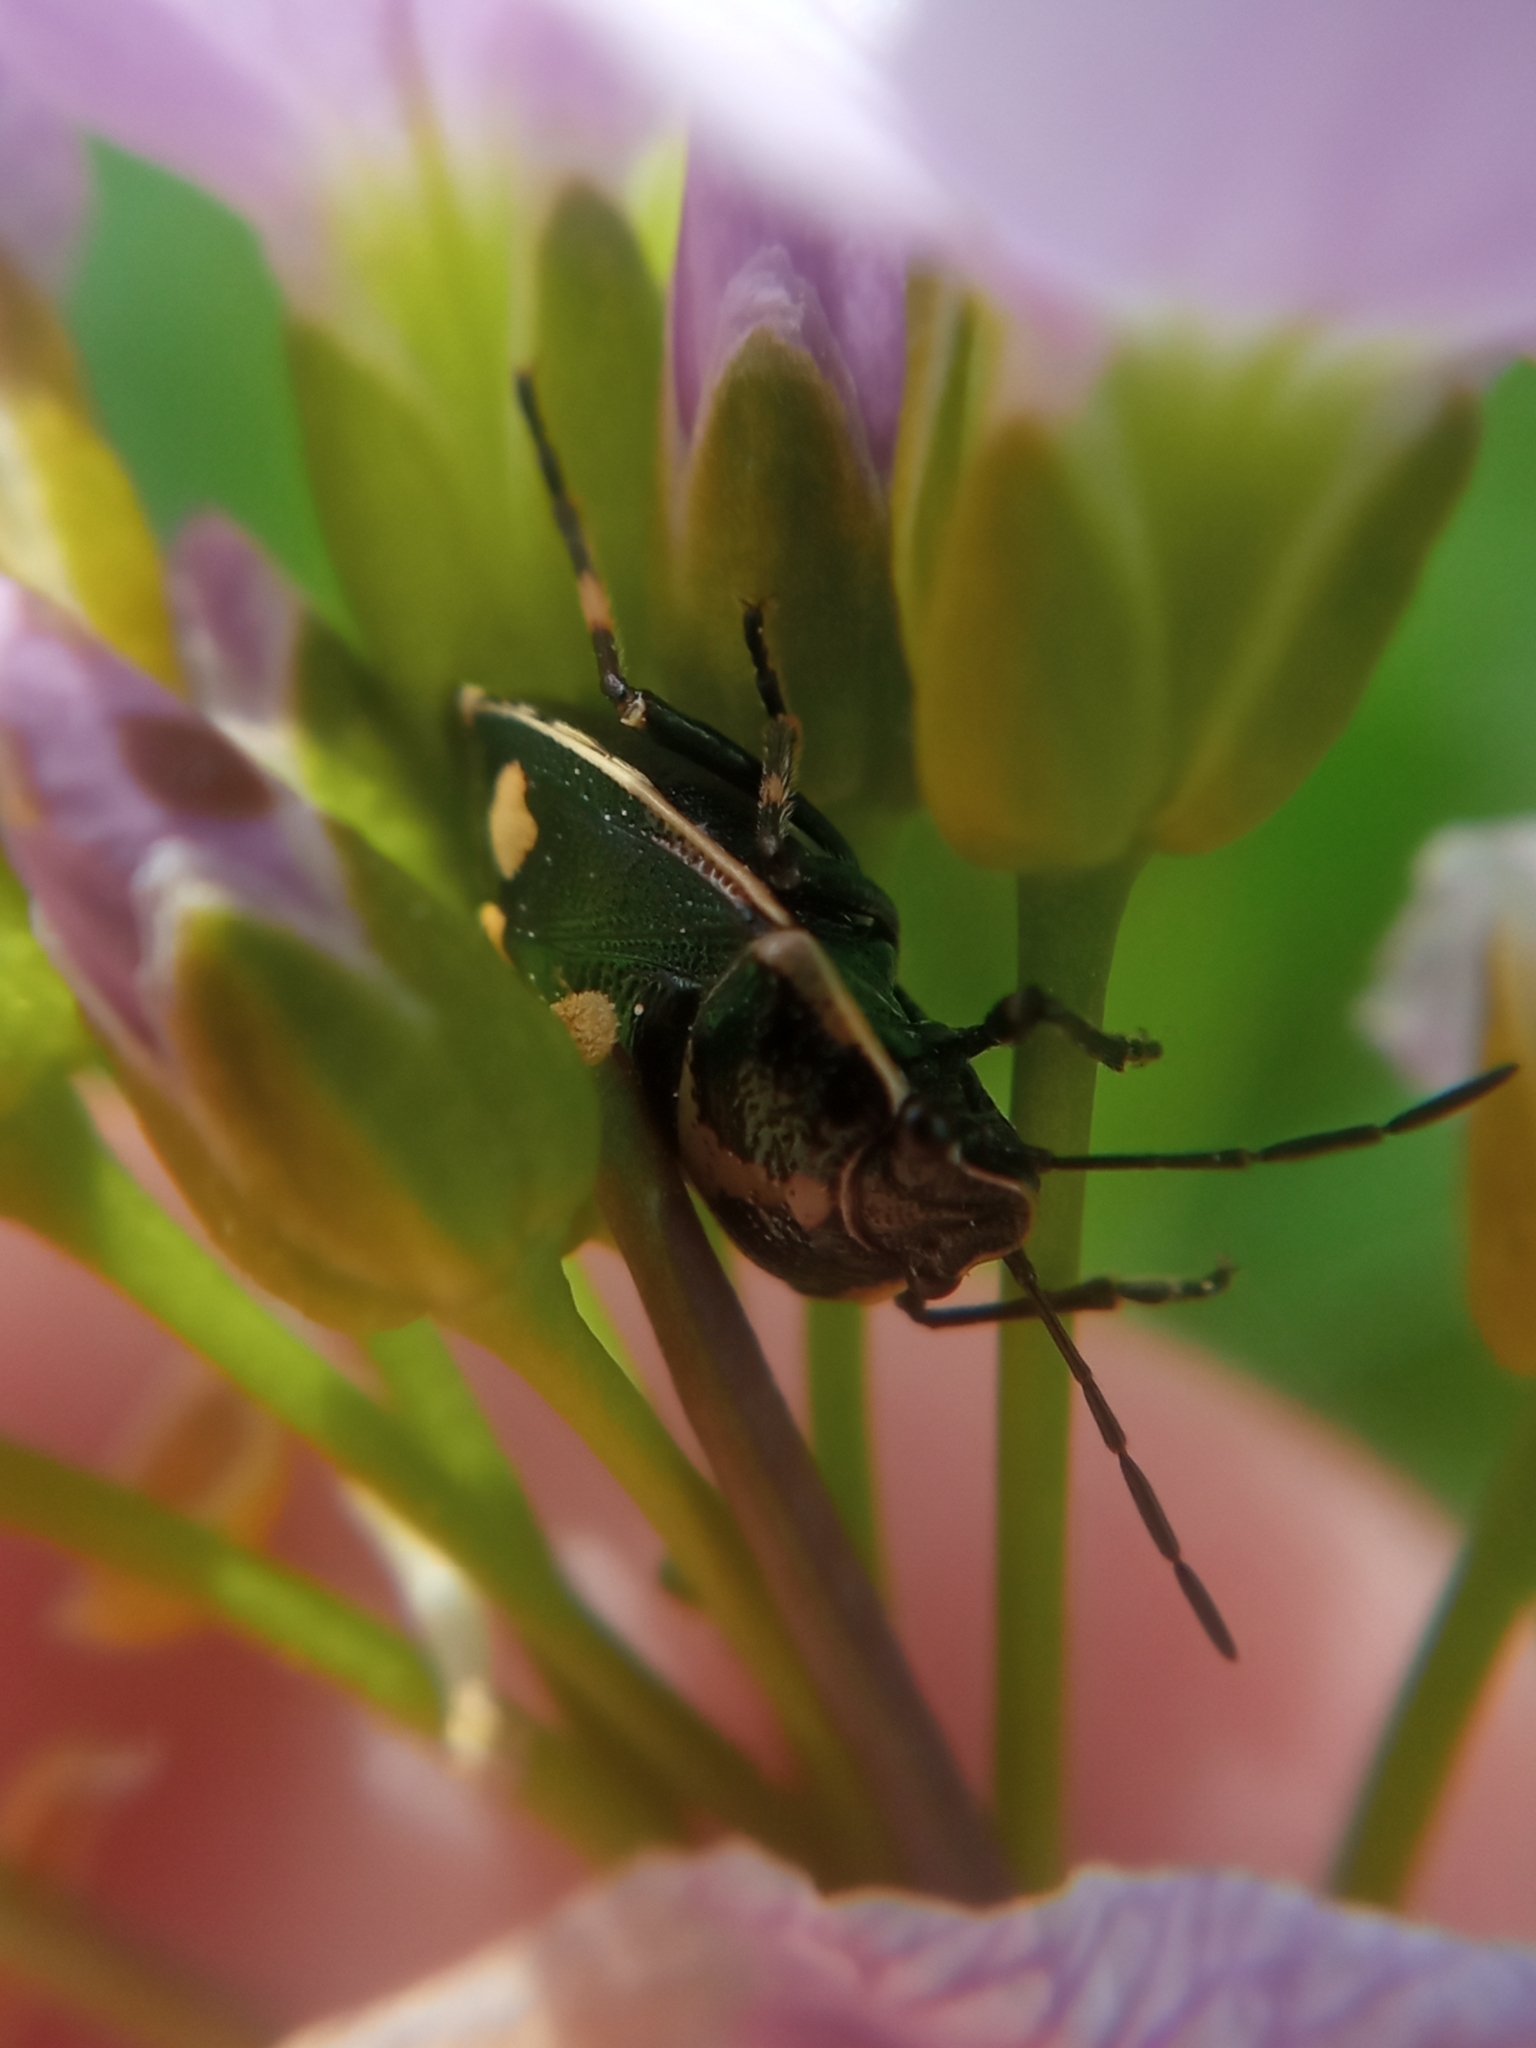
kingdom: Animalia
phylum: Arthropoda
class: Insecta
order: Hemiptera
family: Pentatomidae
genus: Eurydema
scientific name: Eurydema oleracea
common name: Cabbage bug
